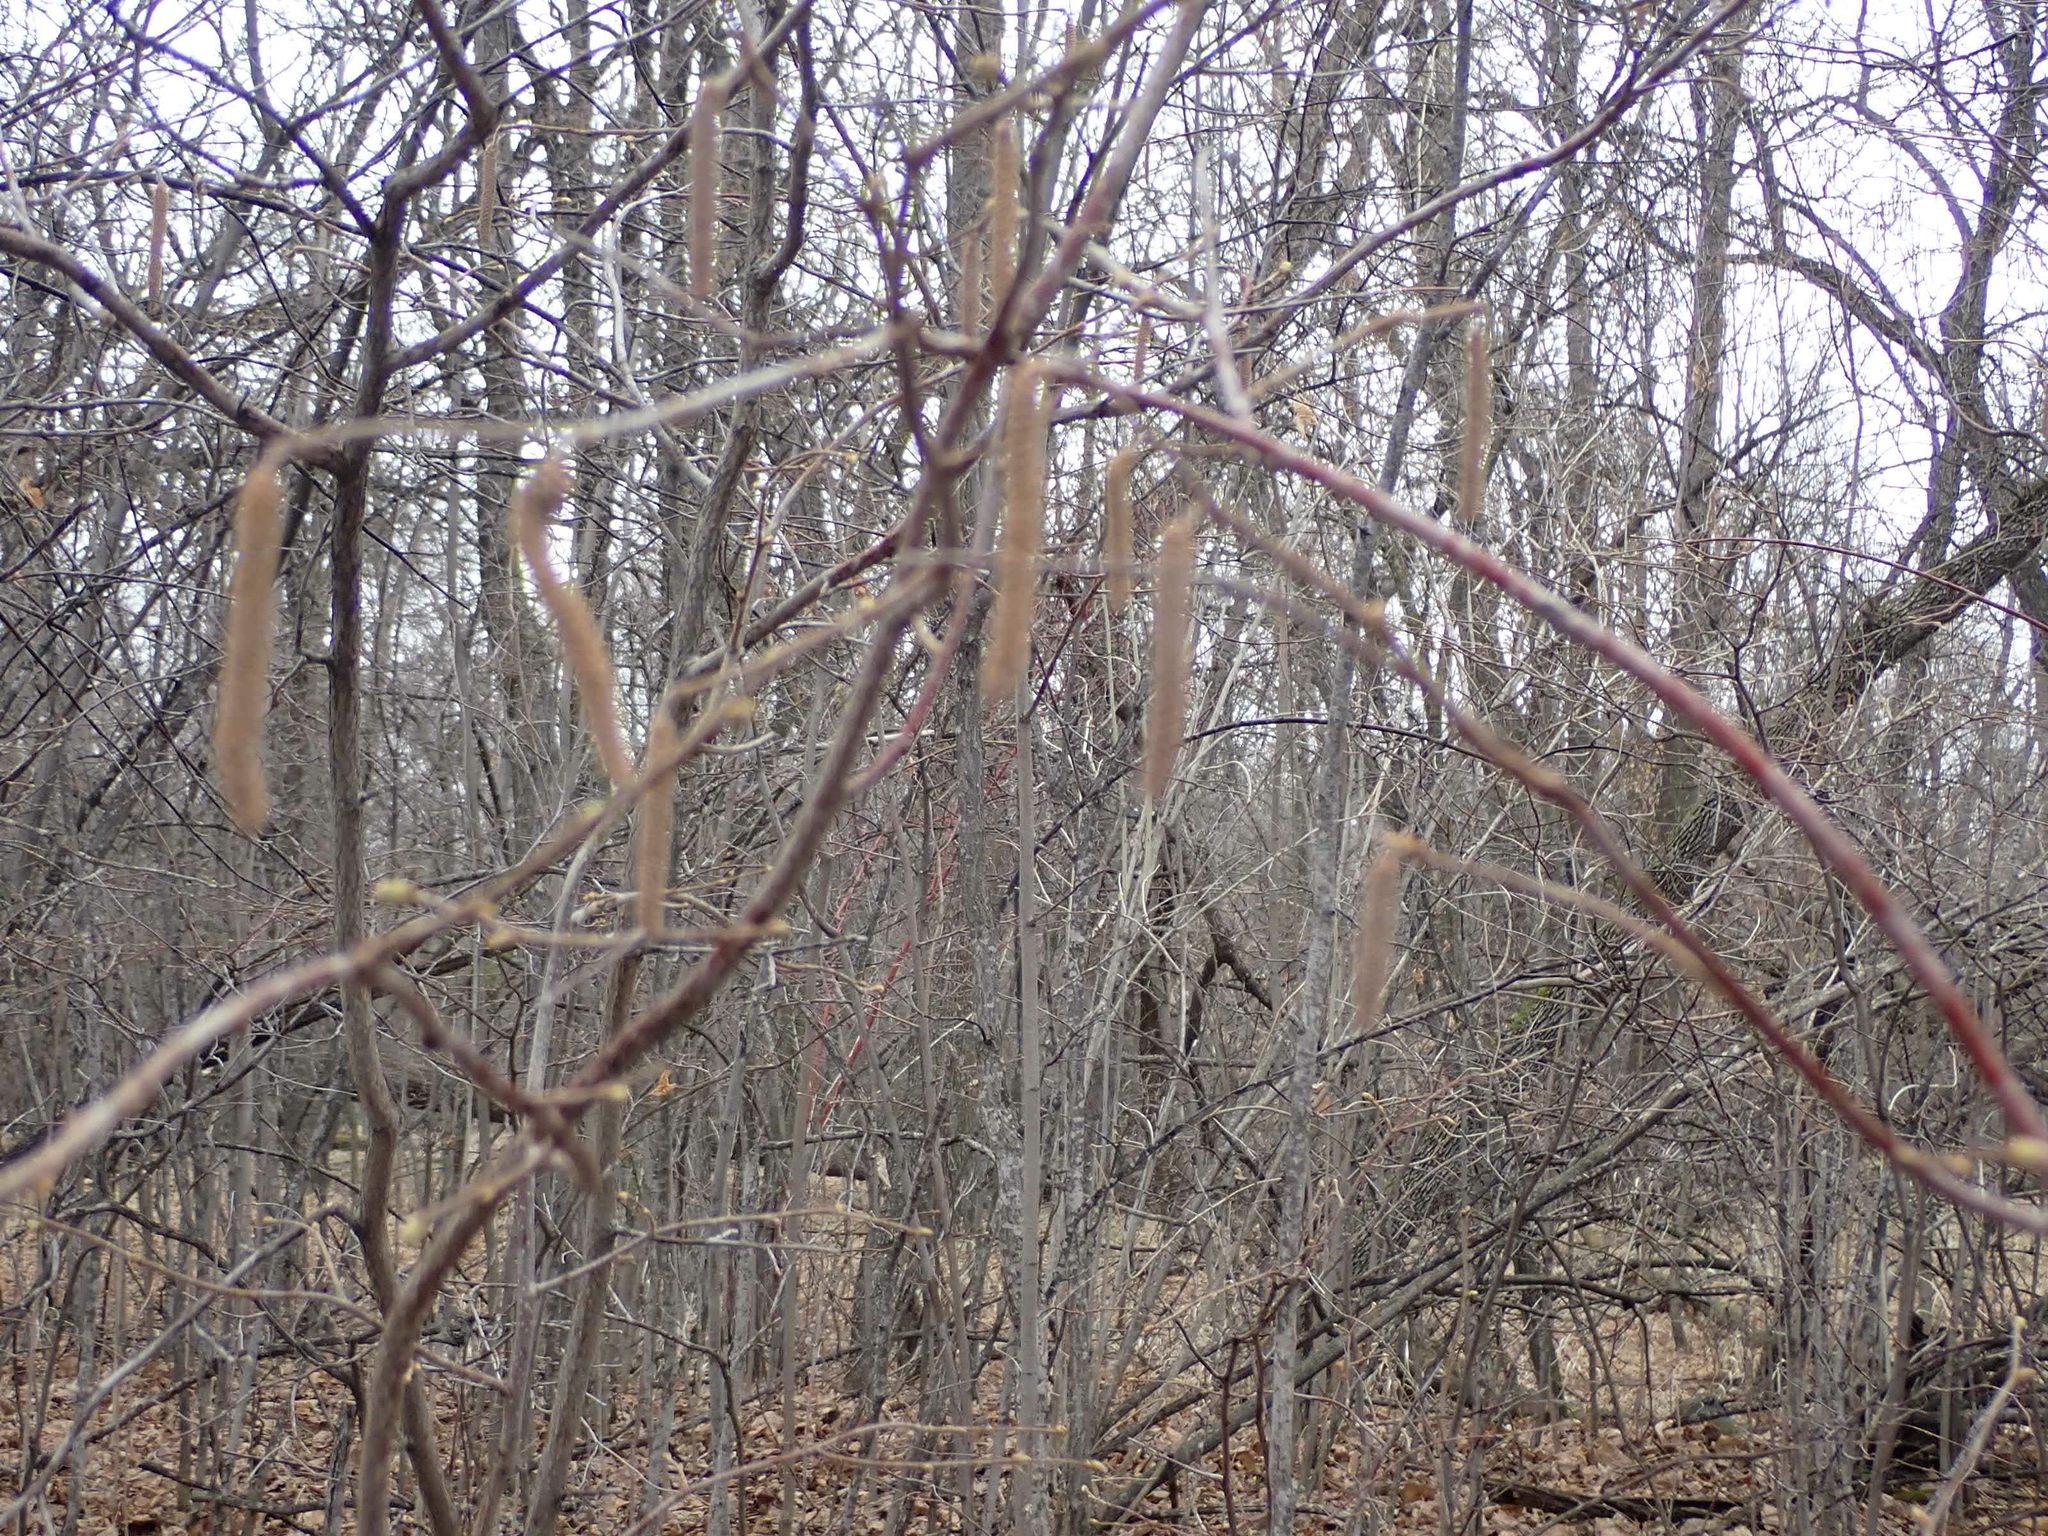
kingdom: Plantae
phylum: Tracheophyta
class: Magnoliopsida
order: Fagales
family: Betulaceae
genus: Corylus
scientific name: Corylus americana
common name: American hazel
